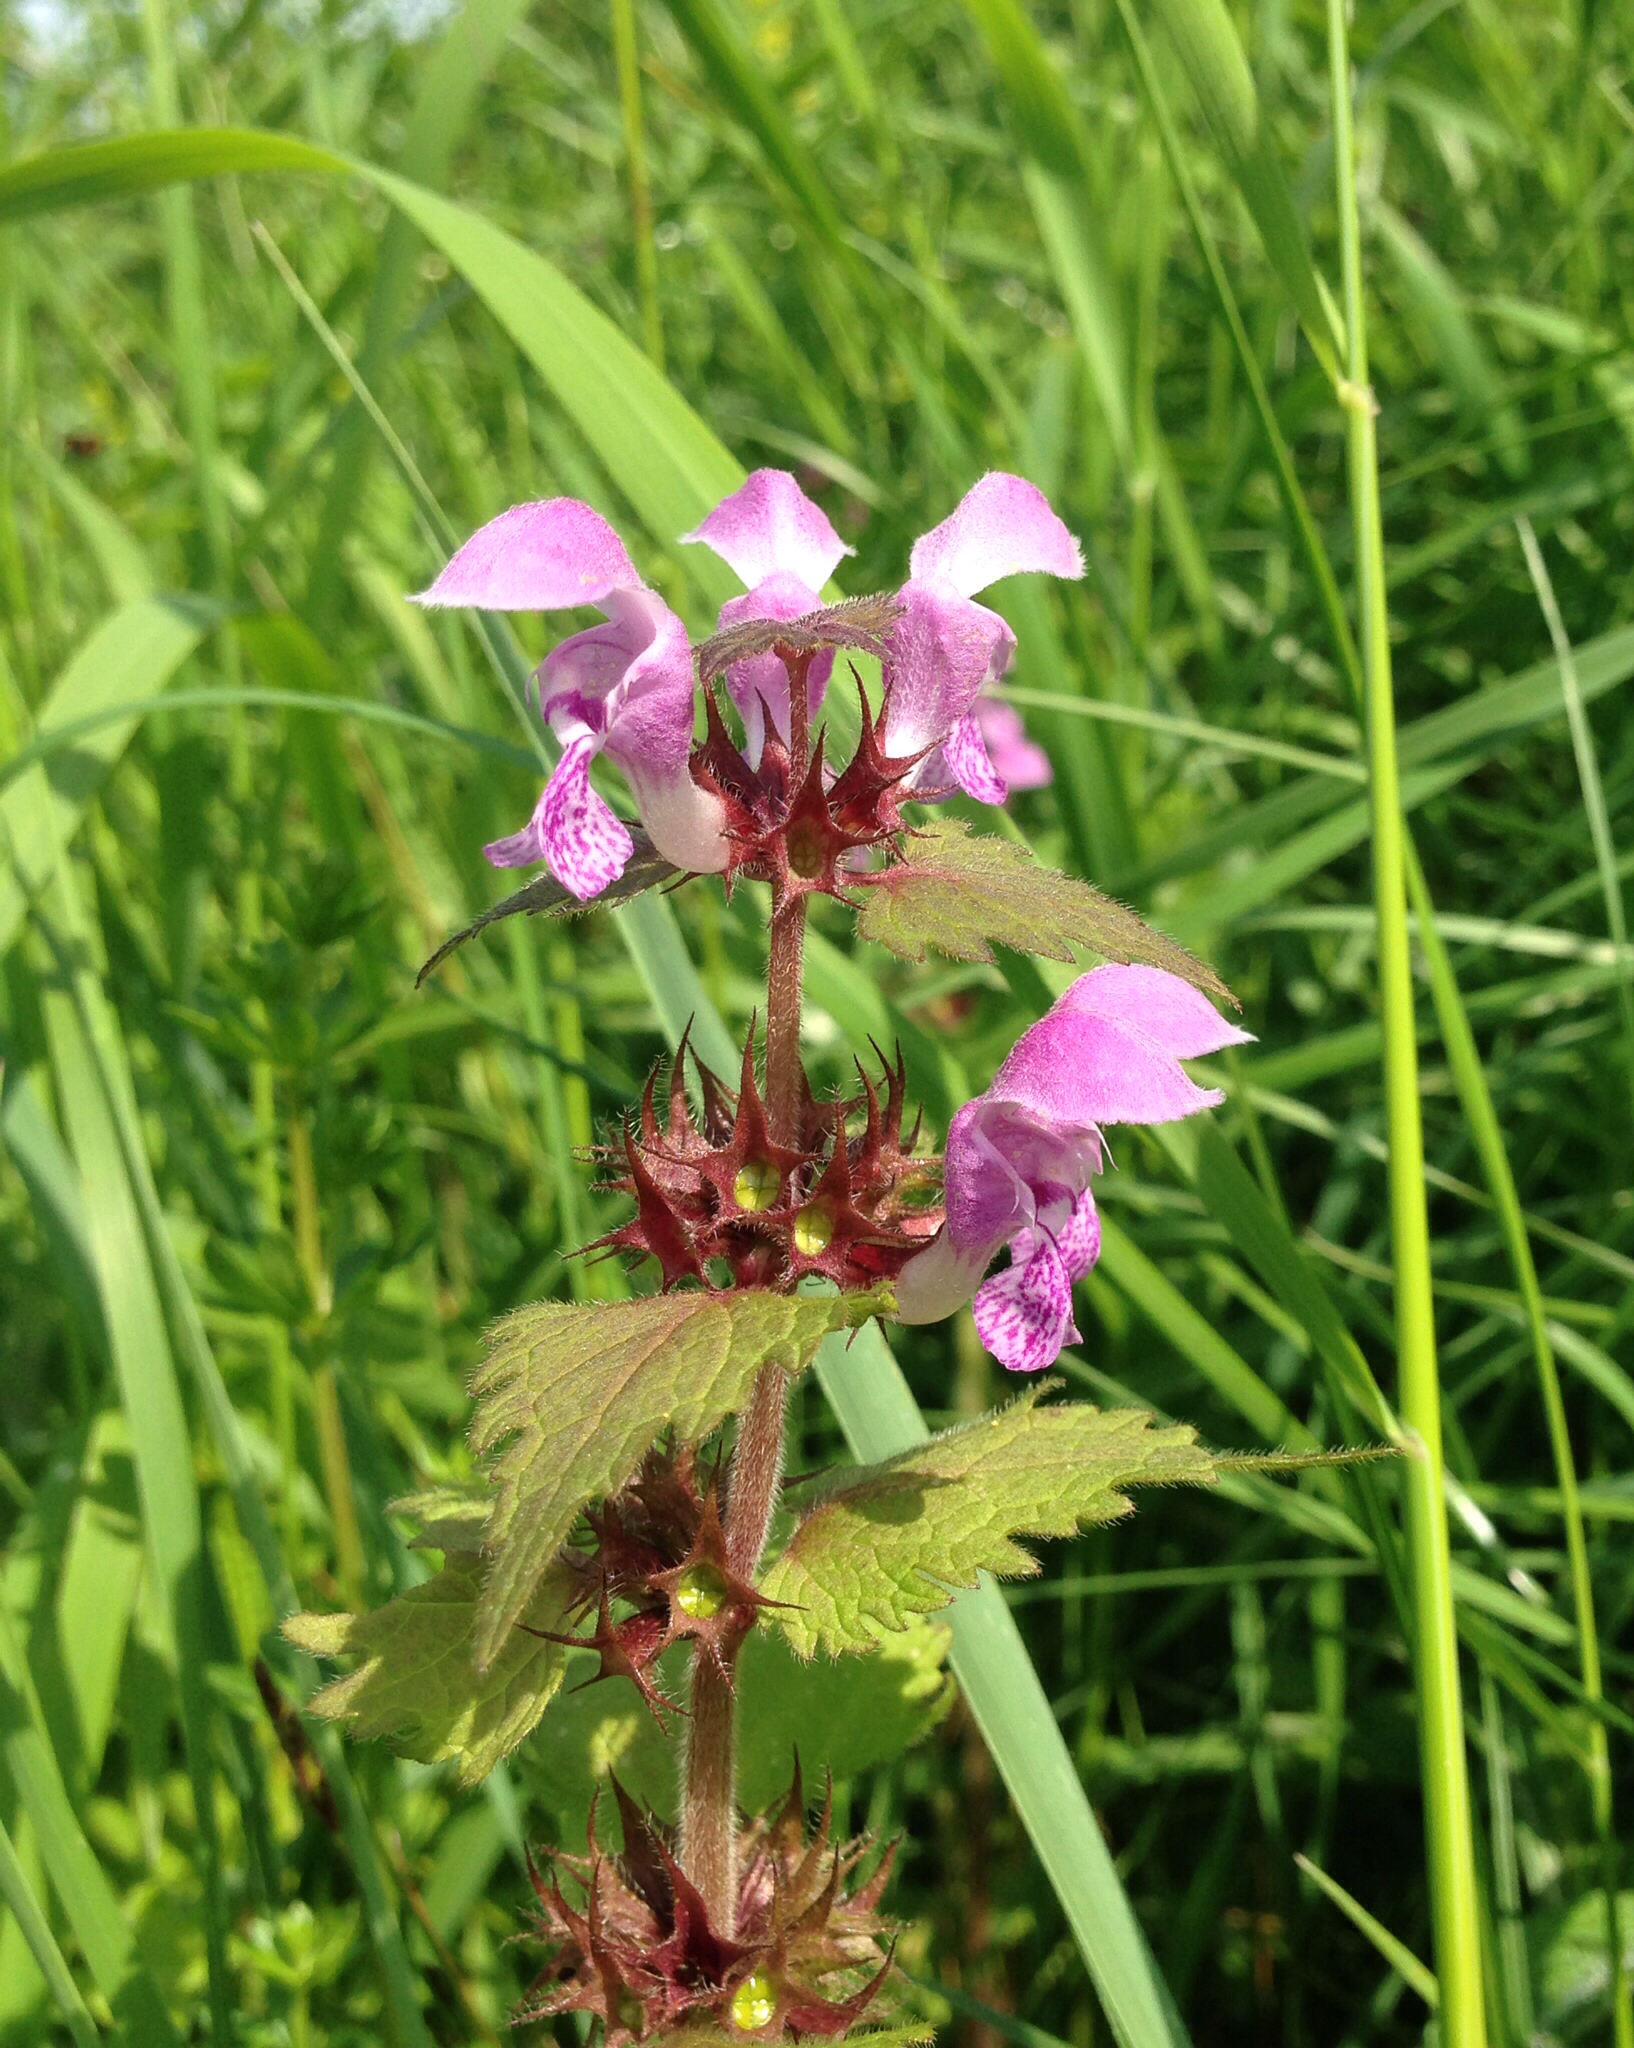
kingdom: Plantae
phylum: Tracheophyta
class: Magnoliopsida
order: Lamiales
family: Lamiaceae
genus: Lamium
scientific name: Lamium maculatum
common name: Spotted dead-nettle
